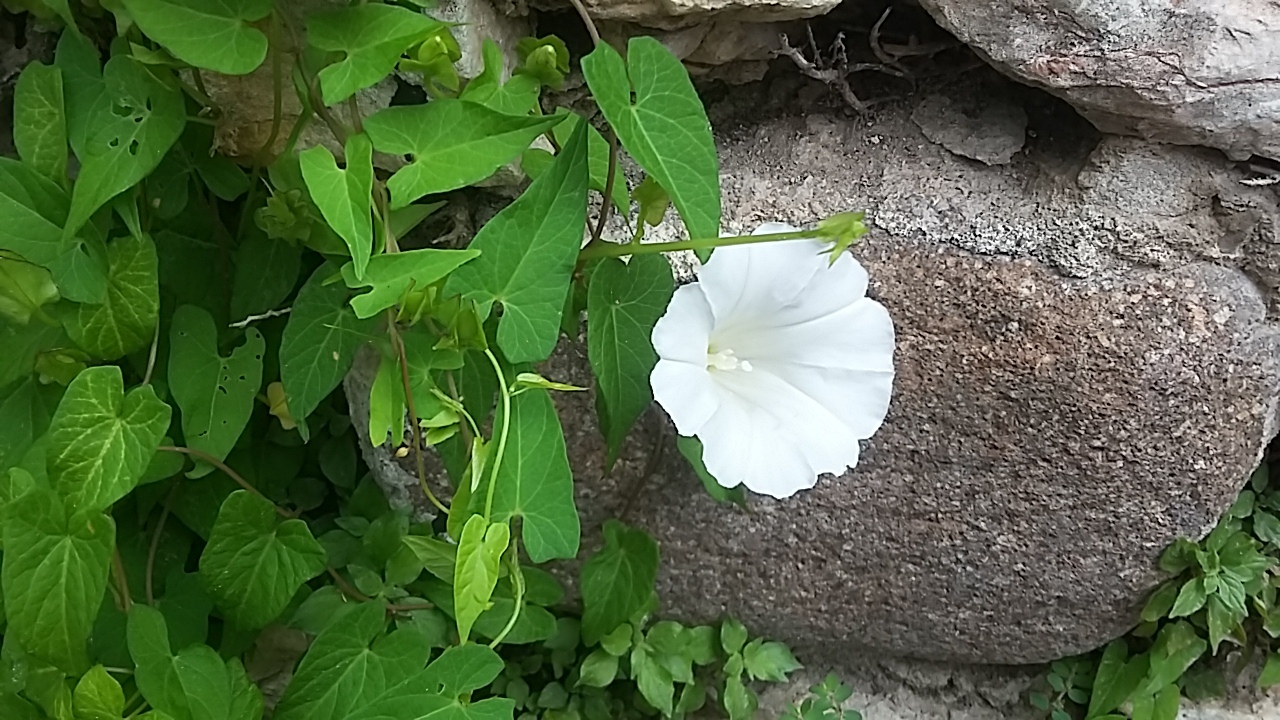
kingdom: Plantae
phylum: Tracheophyta
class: Magnoliopsida
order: Solanales
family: Convolvulaceae
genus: Calystegia
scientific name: Calystegia sepium
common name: Hedge bindweed
